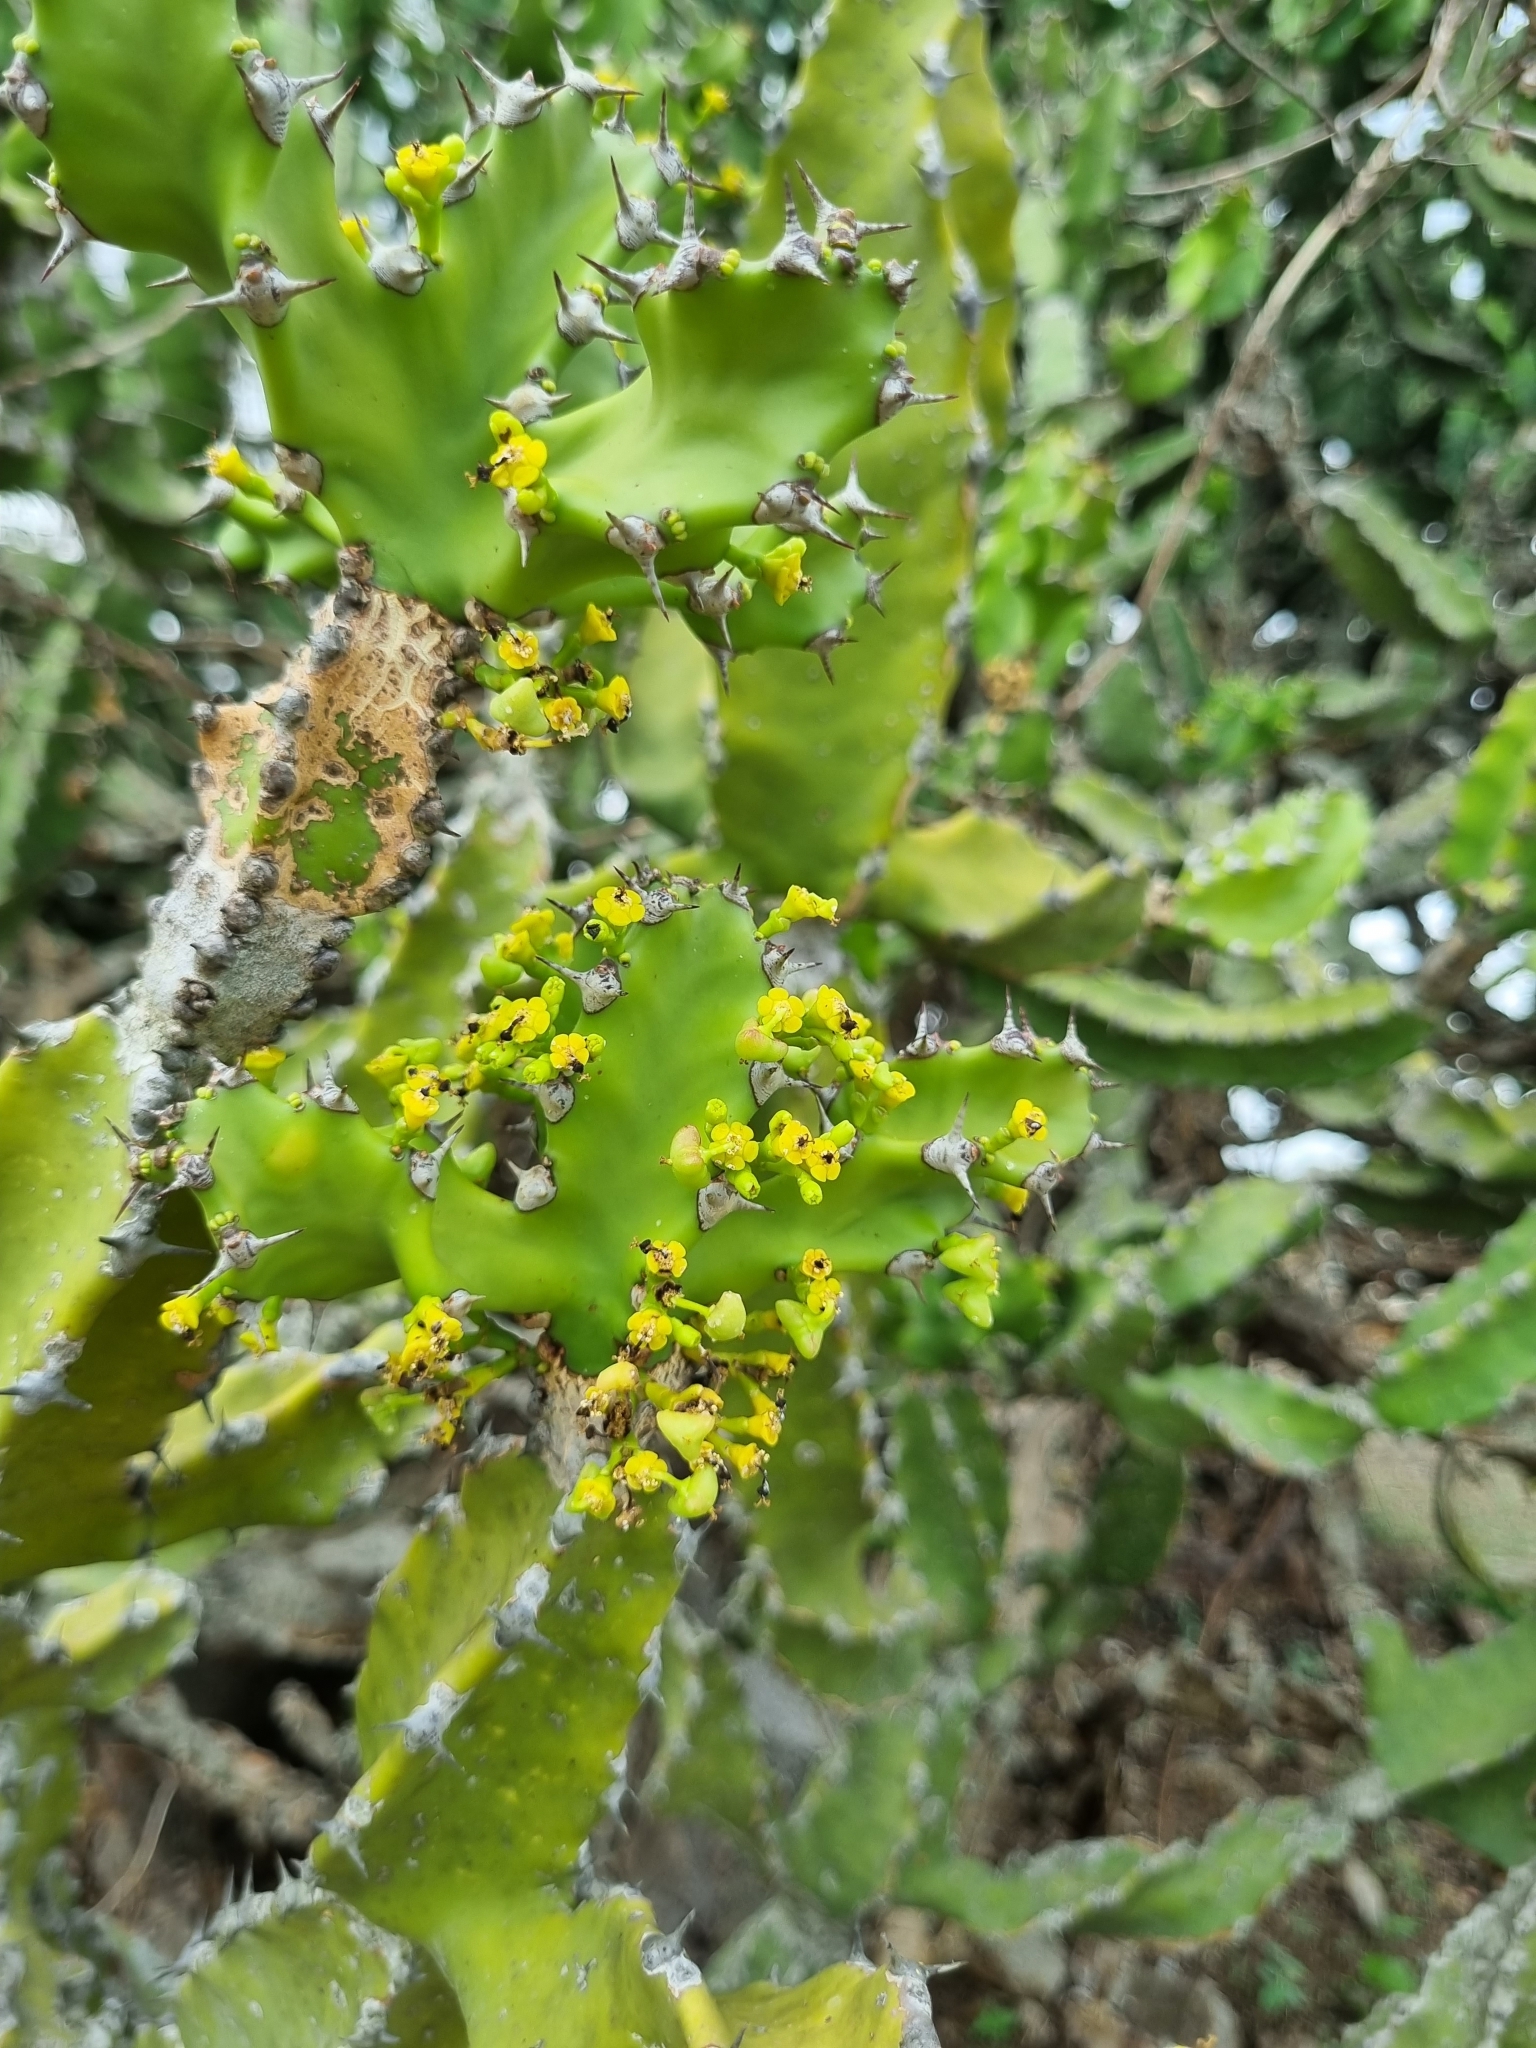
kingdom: Plantae
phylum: Tracheophyta
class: Magnoliopsida
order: Malpighiales
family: Euphorbiaceae
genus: Euphorbia
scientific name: Euphorbia neriifolia
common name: Hedge euphorbia
